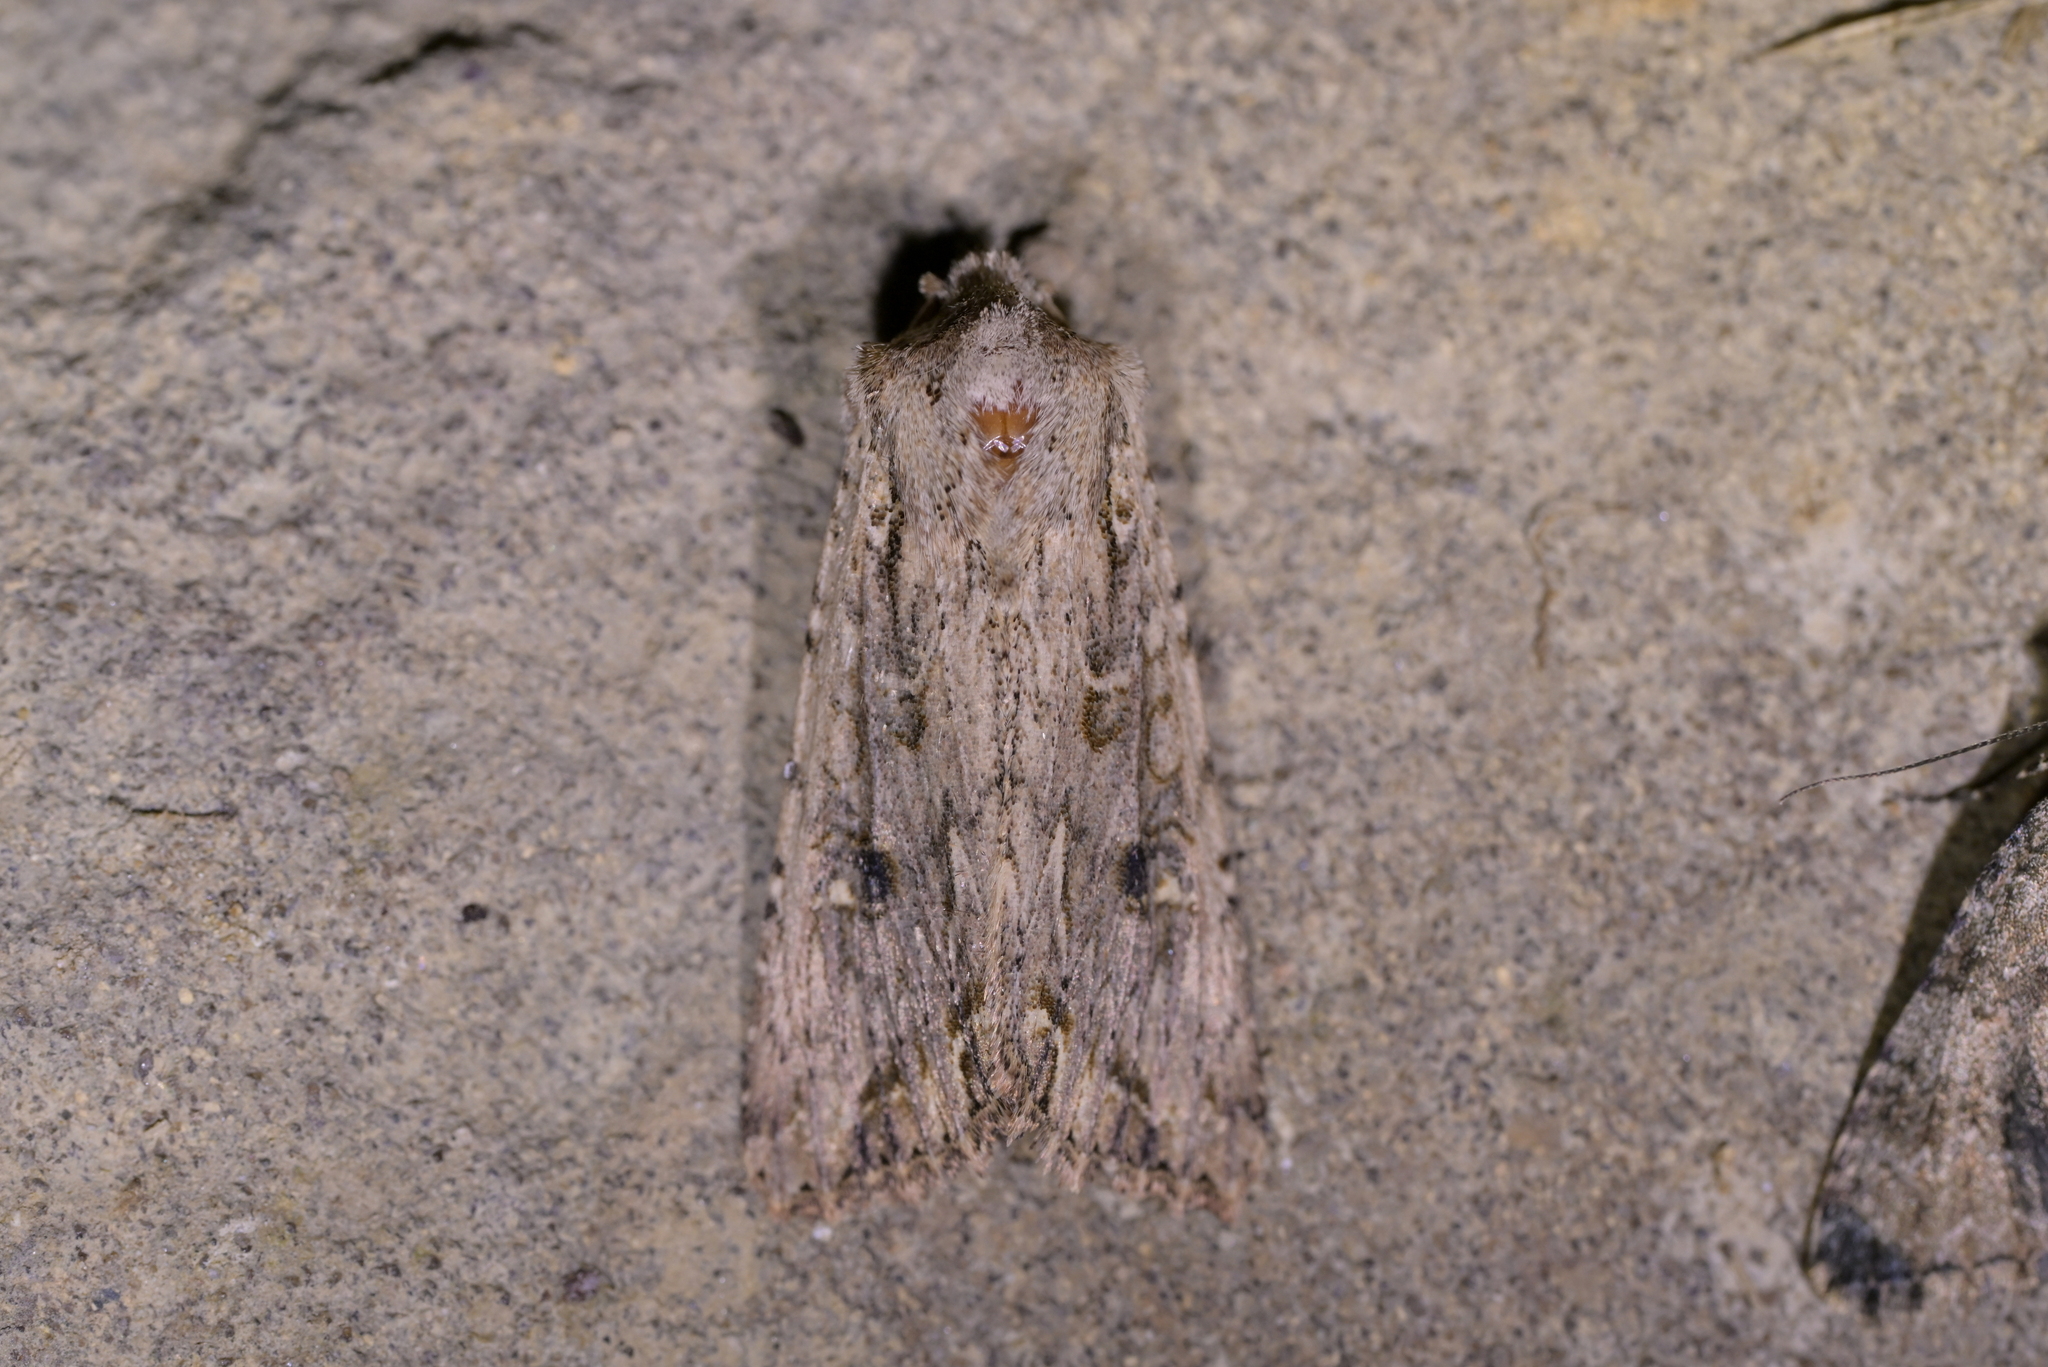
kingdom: Animalia
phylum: Arthropoda
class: Insecta
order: Lepidoptera
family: Noctuidae
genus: Ichneutica
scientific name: Ichneutica lignana
